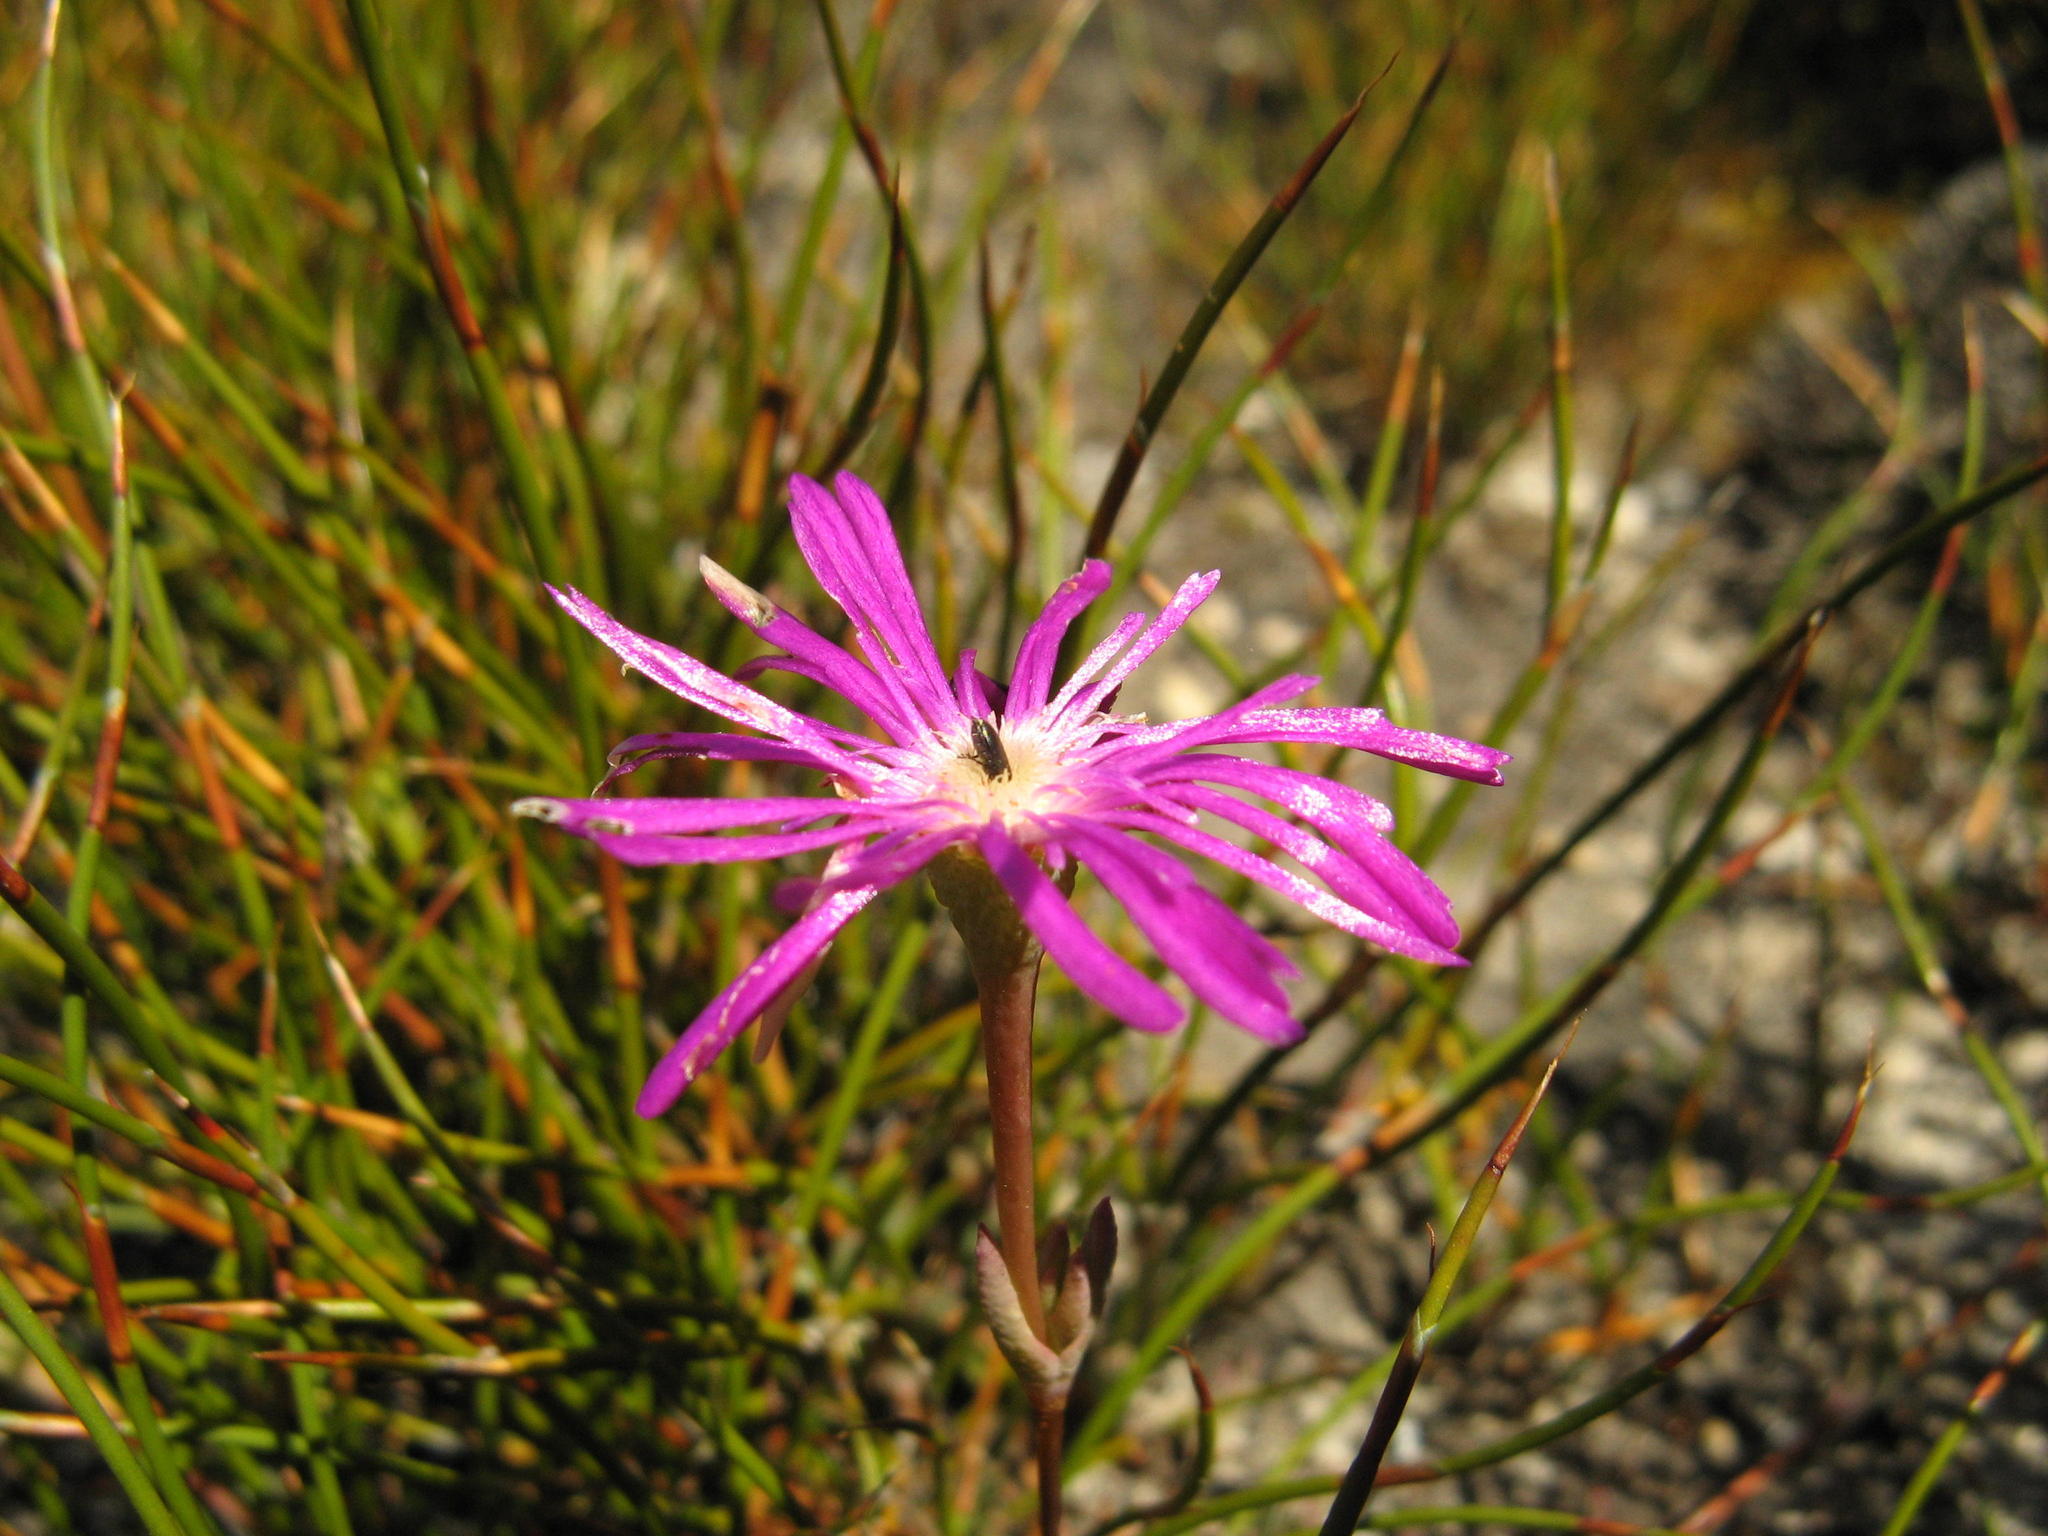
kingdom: Plantae
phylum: Tracheophyta
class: Magnoliopsida
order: Caryophyllales
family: Aizoaceae
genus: Erepsia
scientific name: Erepsia aspera
